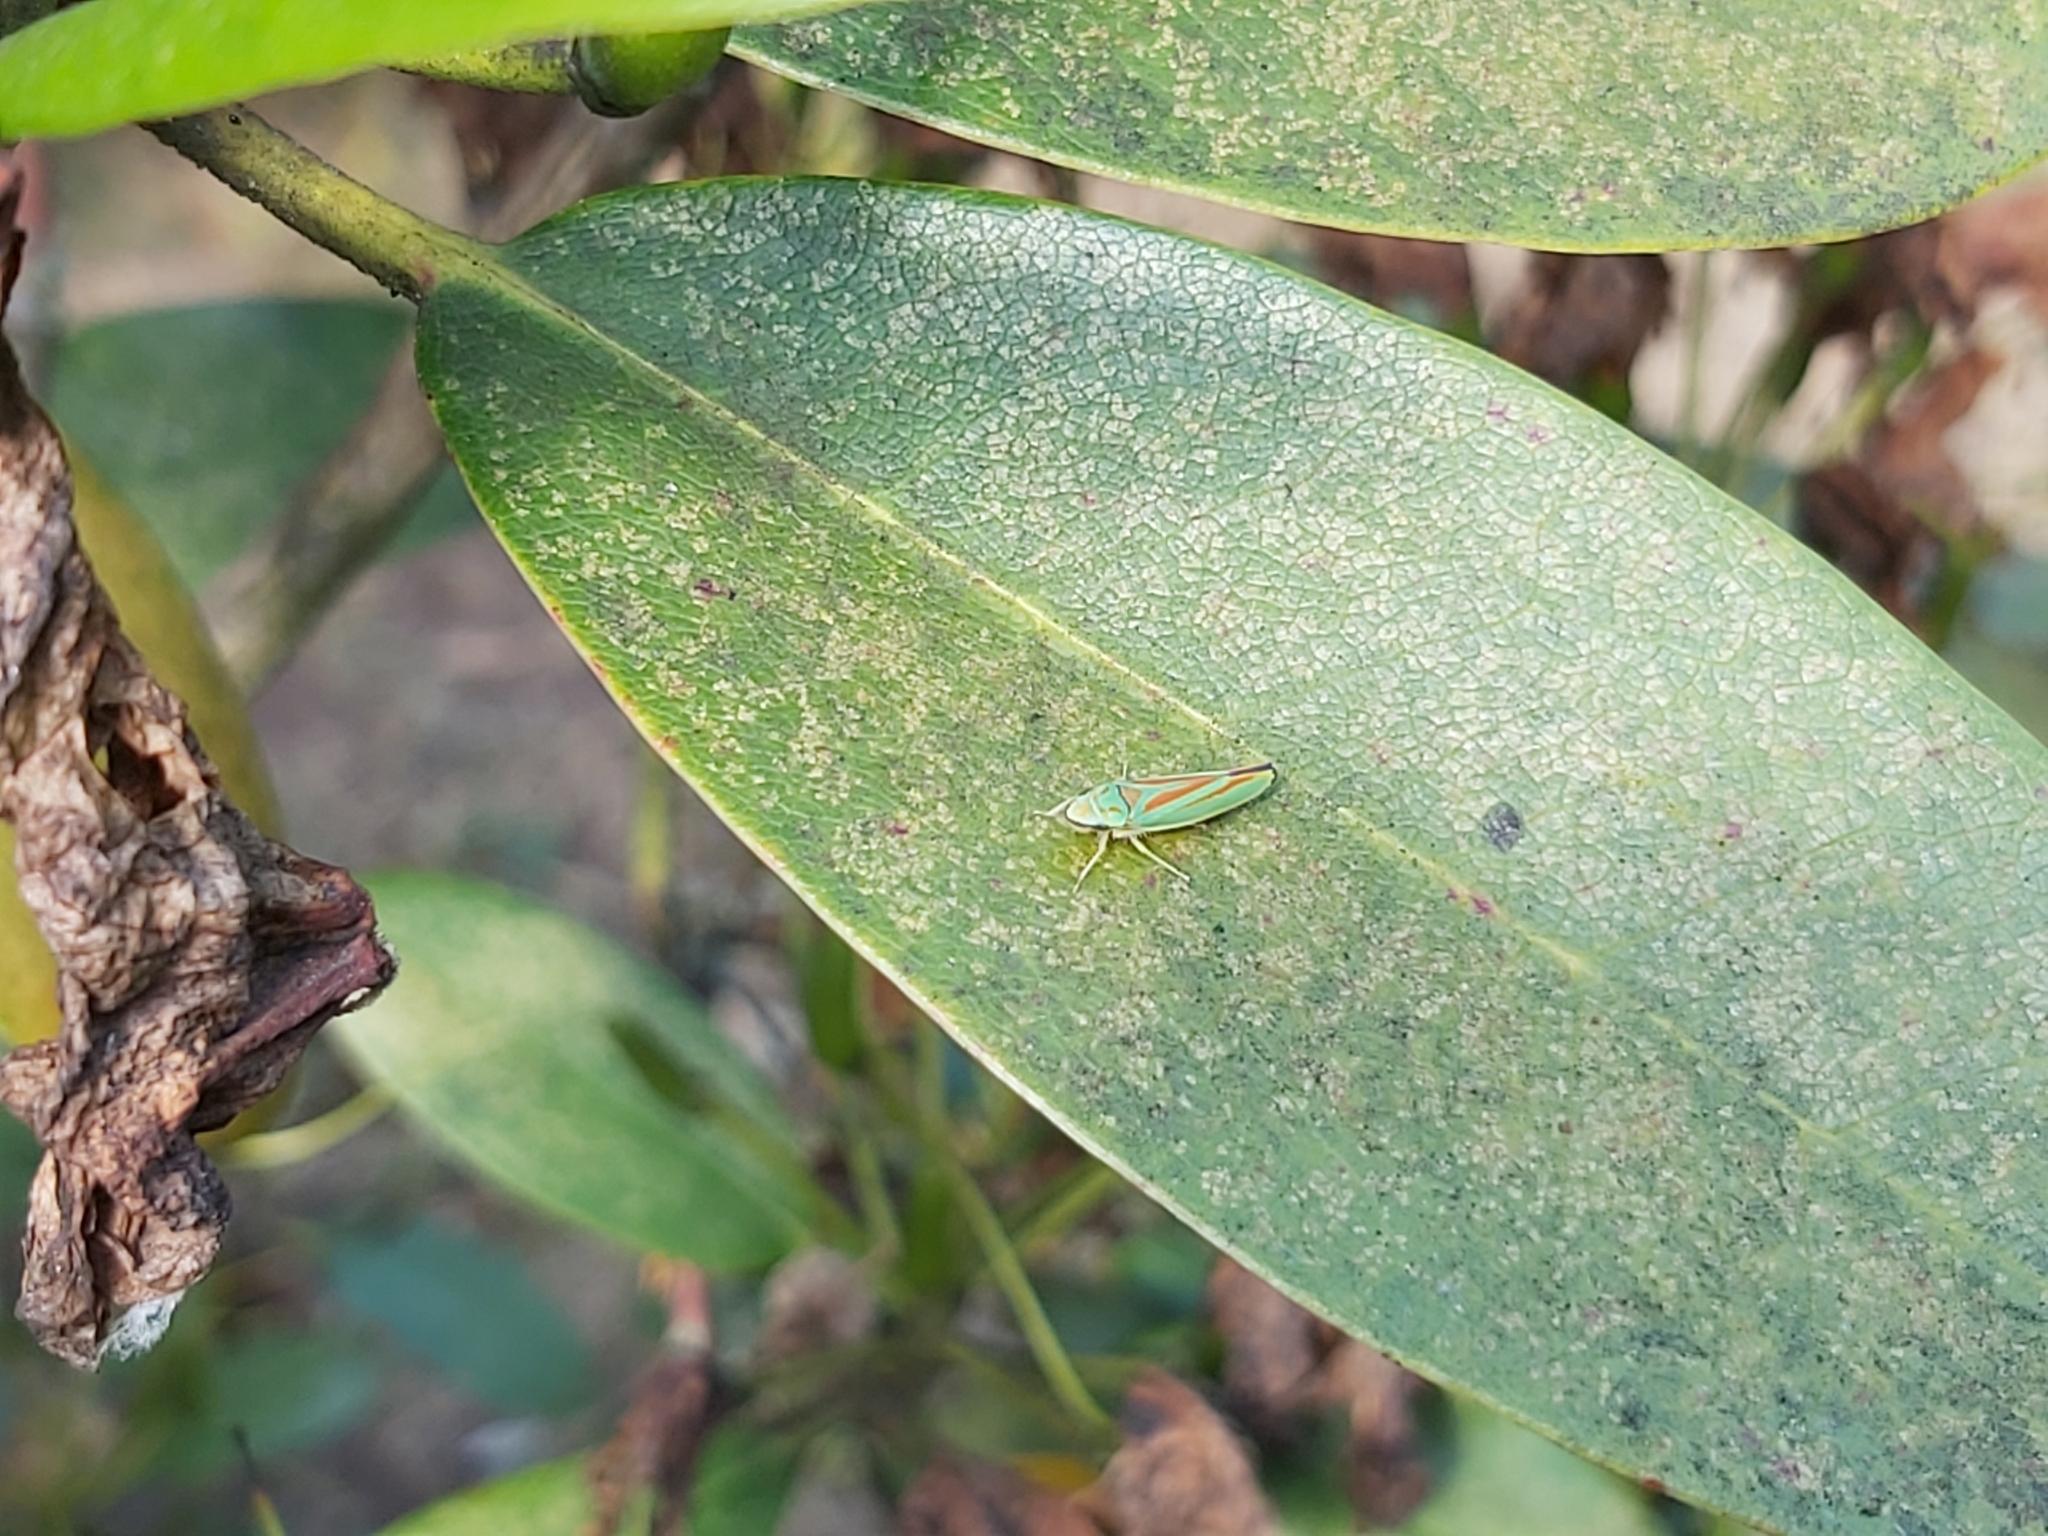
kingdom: Animalia
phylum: Arthropoda
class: Insecta
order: Hemiptera
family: Cicadellidae
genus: Graphocephala
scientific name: Graphocephala fennahi
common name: Rhododendron leafhopper
